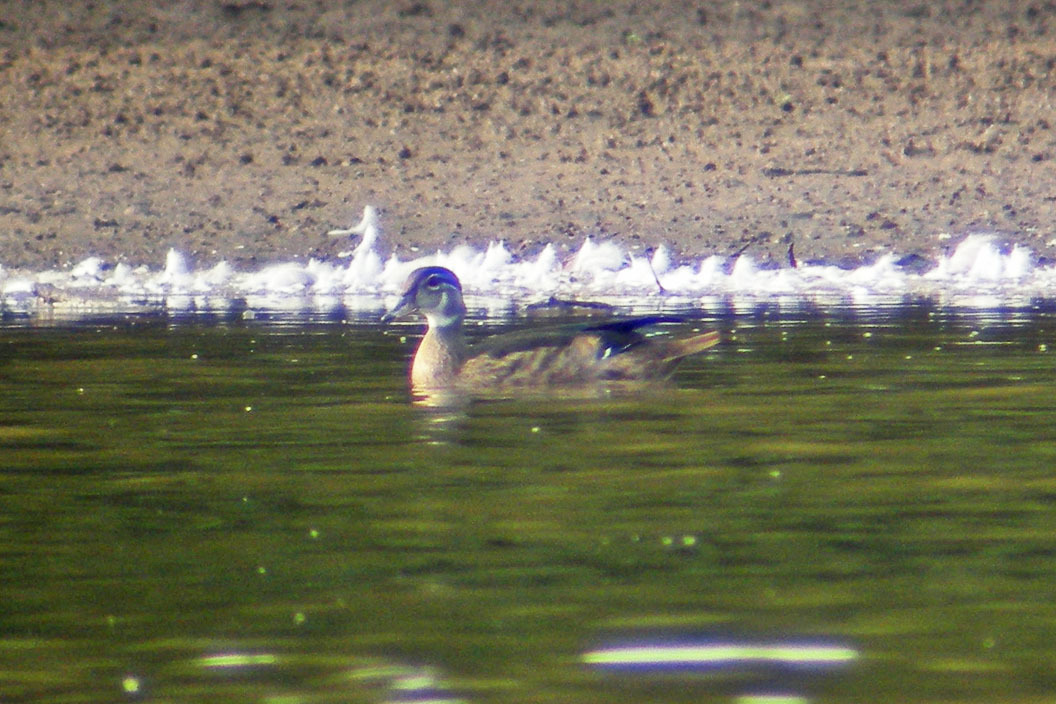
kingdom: Animalia
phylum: Chordata
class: Aves
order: Anseriformes
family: Anatidae
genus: Aix
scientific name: Aix sponsa
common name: Wood duck
